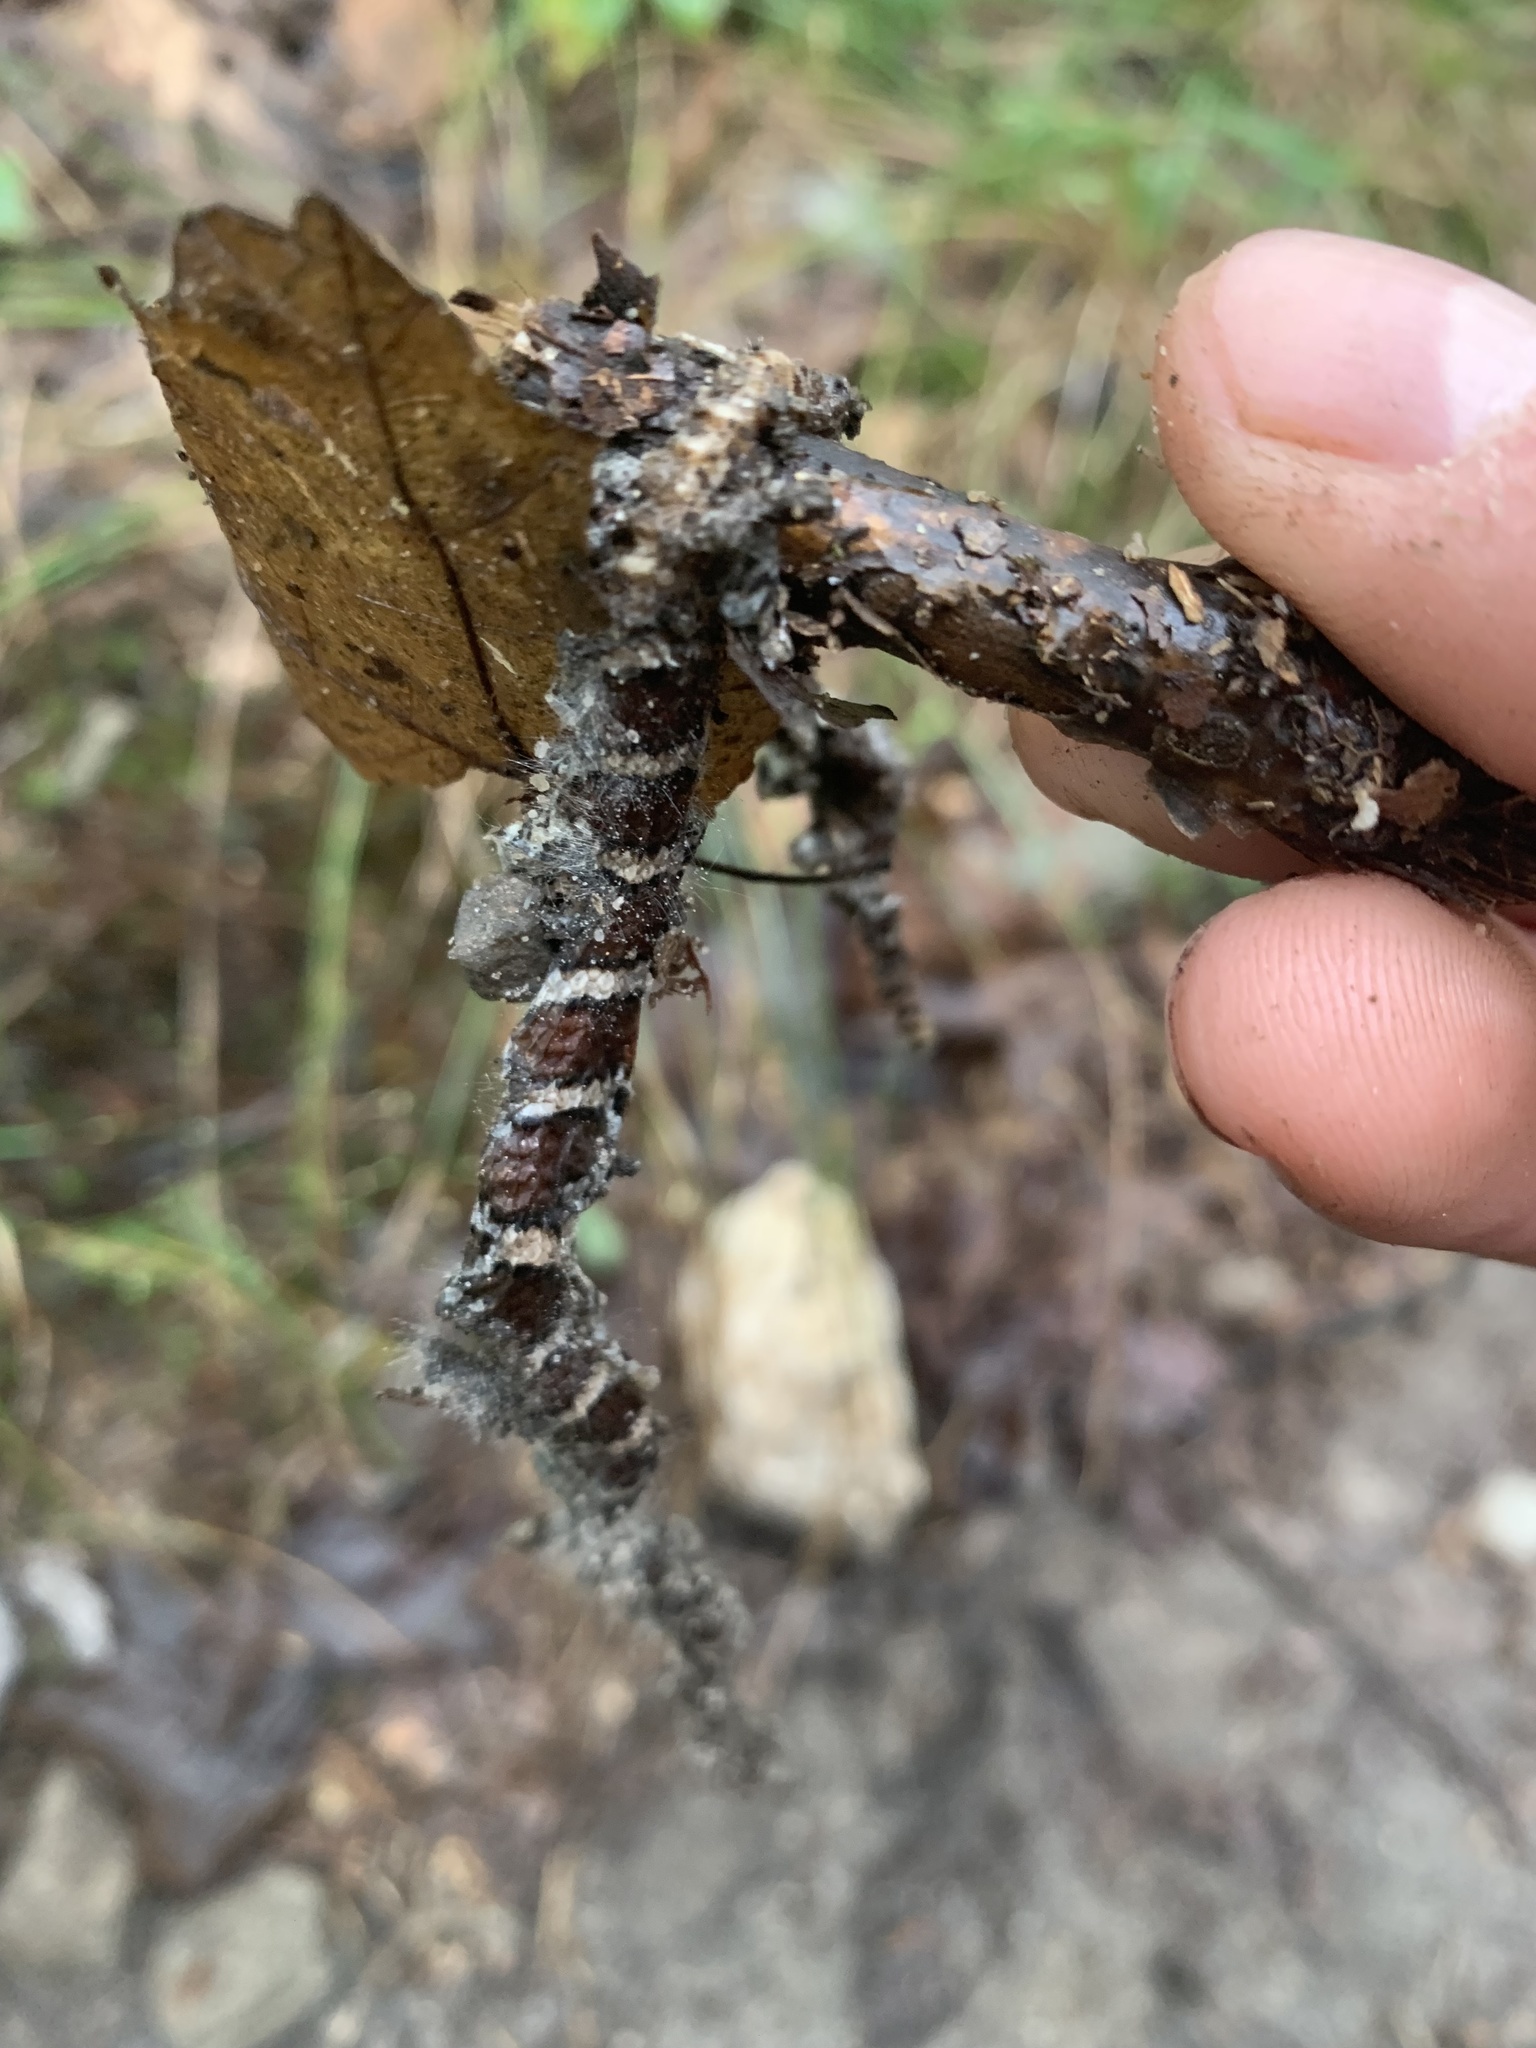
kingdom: Animalia
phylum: Chordata
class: Squamata
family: Colubridae
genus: Lampropeltis
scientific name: Lampropeltis triangulum
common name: Eastern milksnake
